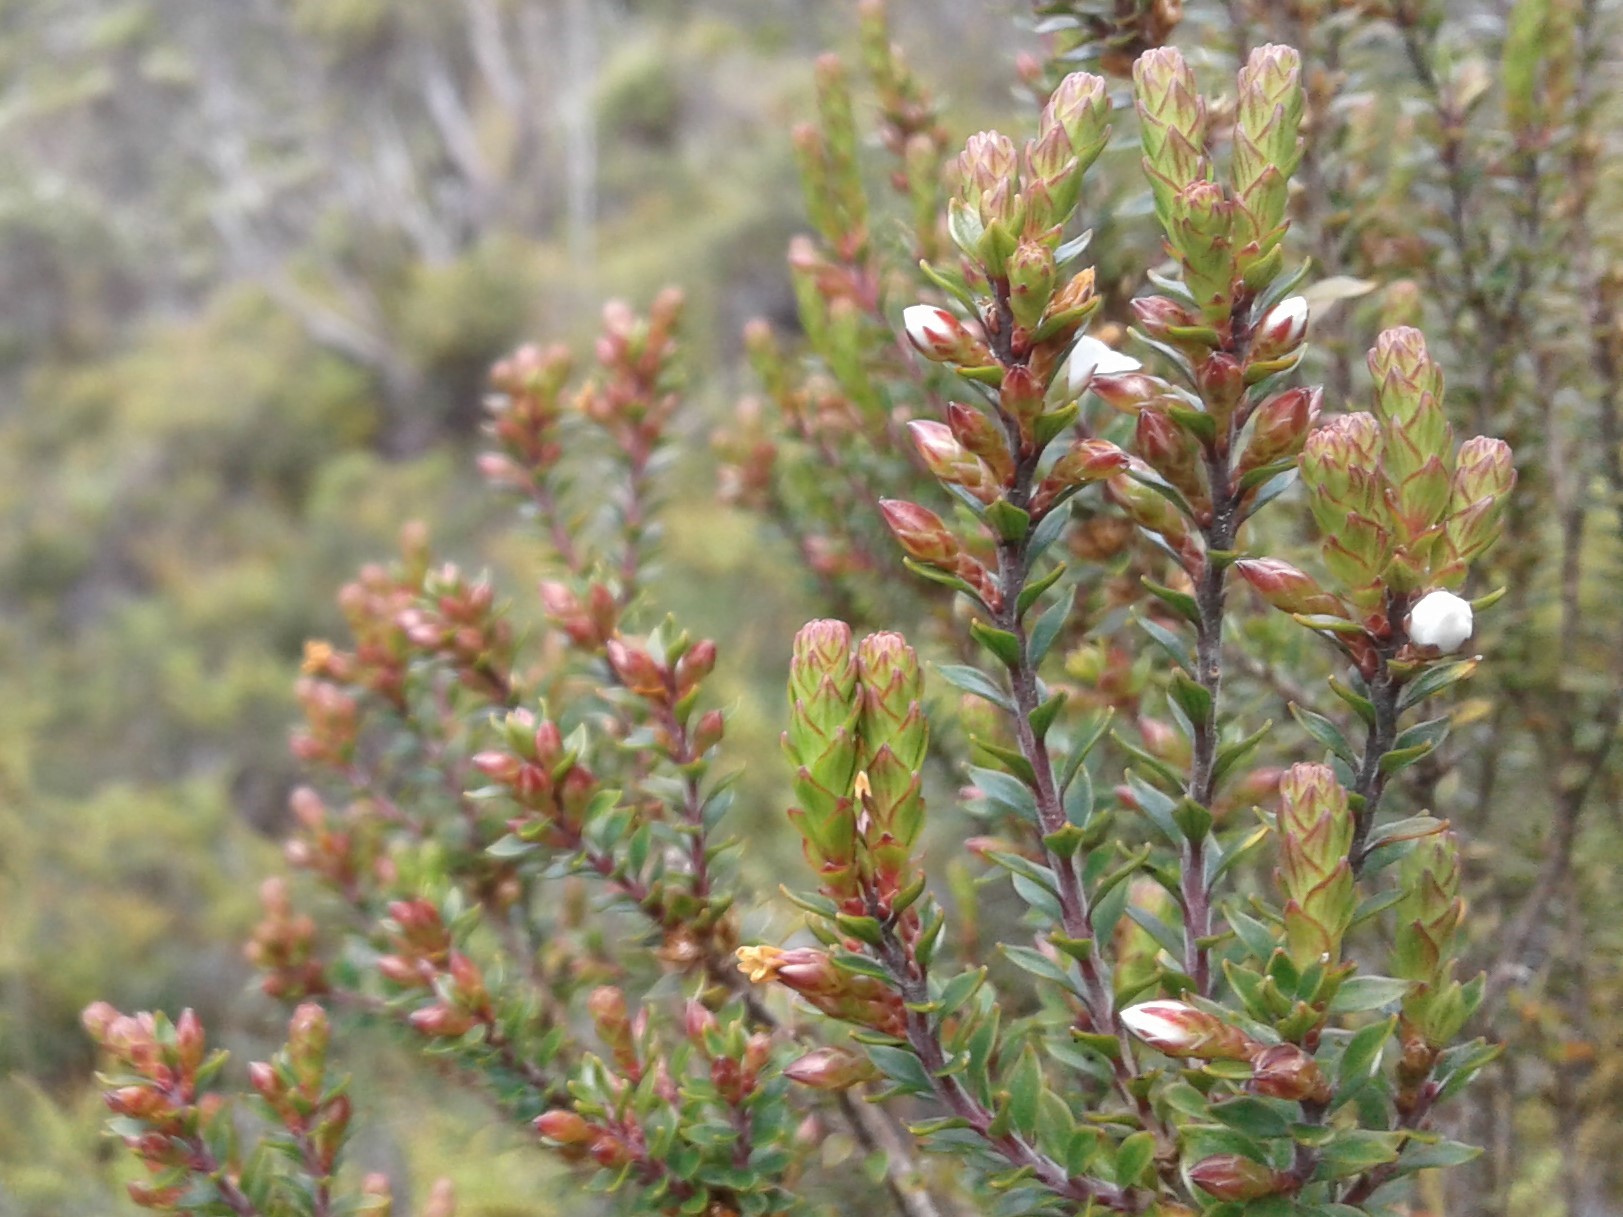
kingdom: Plantae
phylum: Tracheophyta
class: Magnoliopsida
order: Ericales
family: Ericaceae
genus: Epacris
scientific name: Epacris pauciflora
